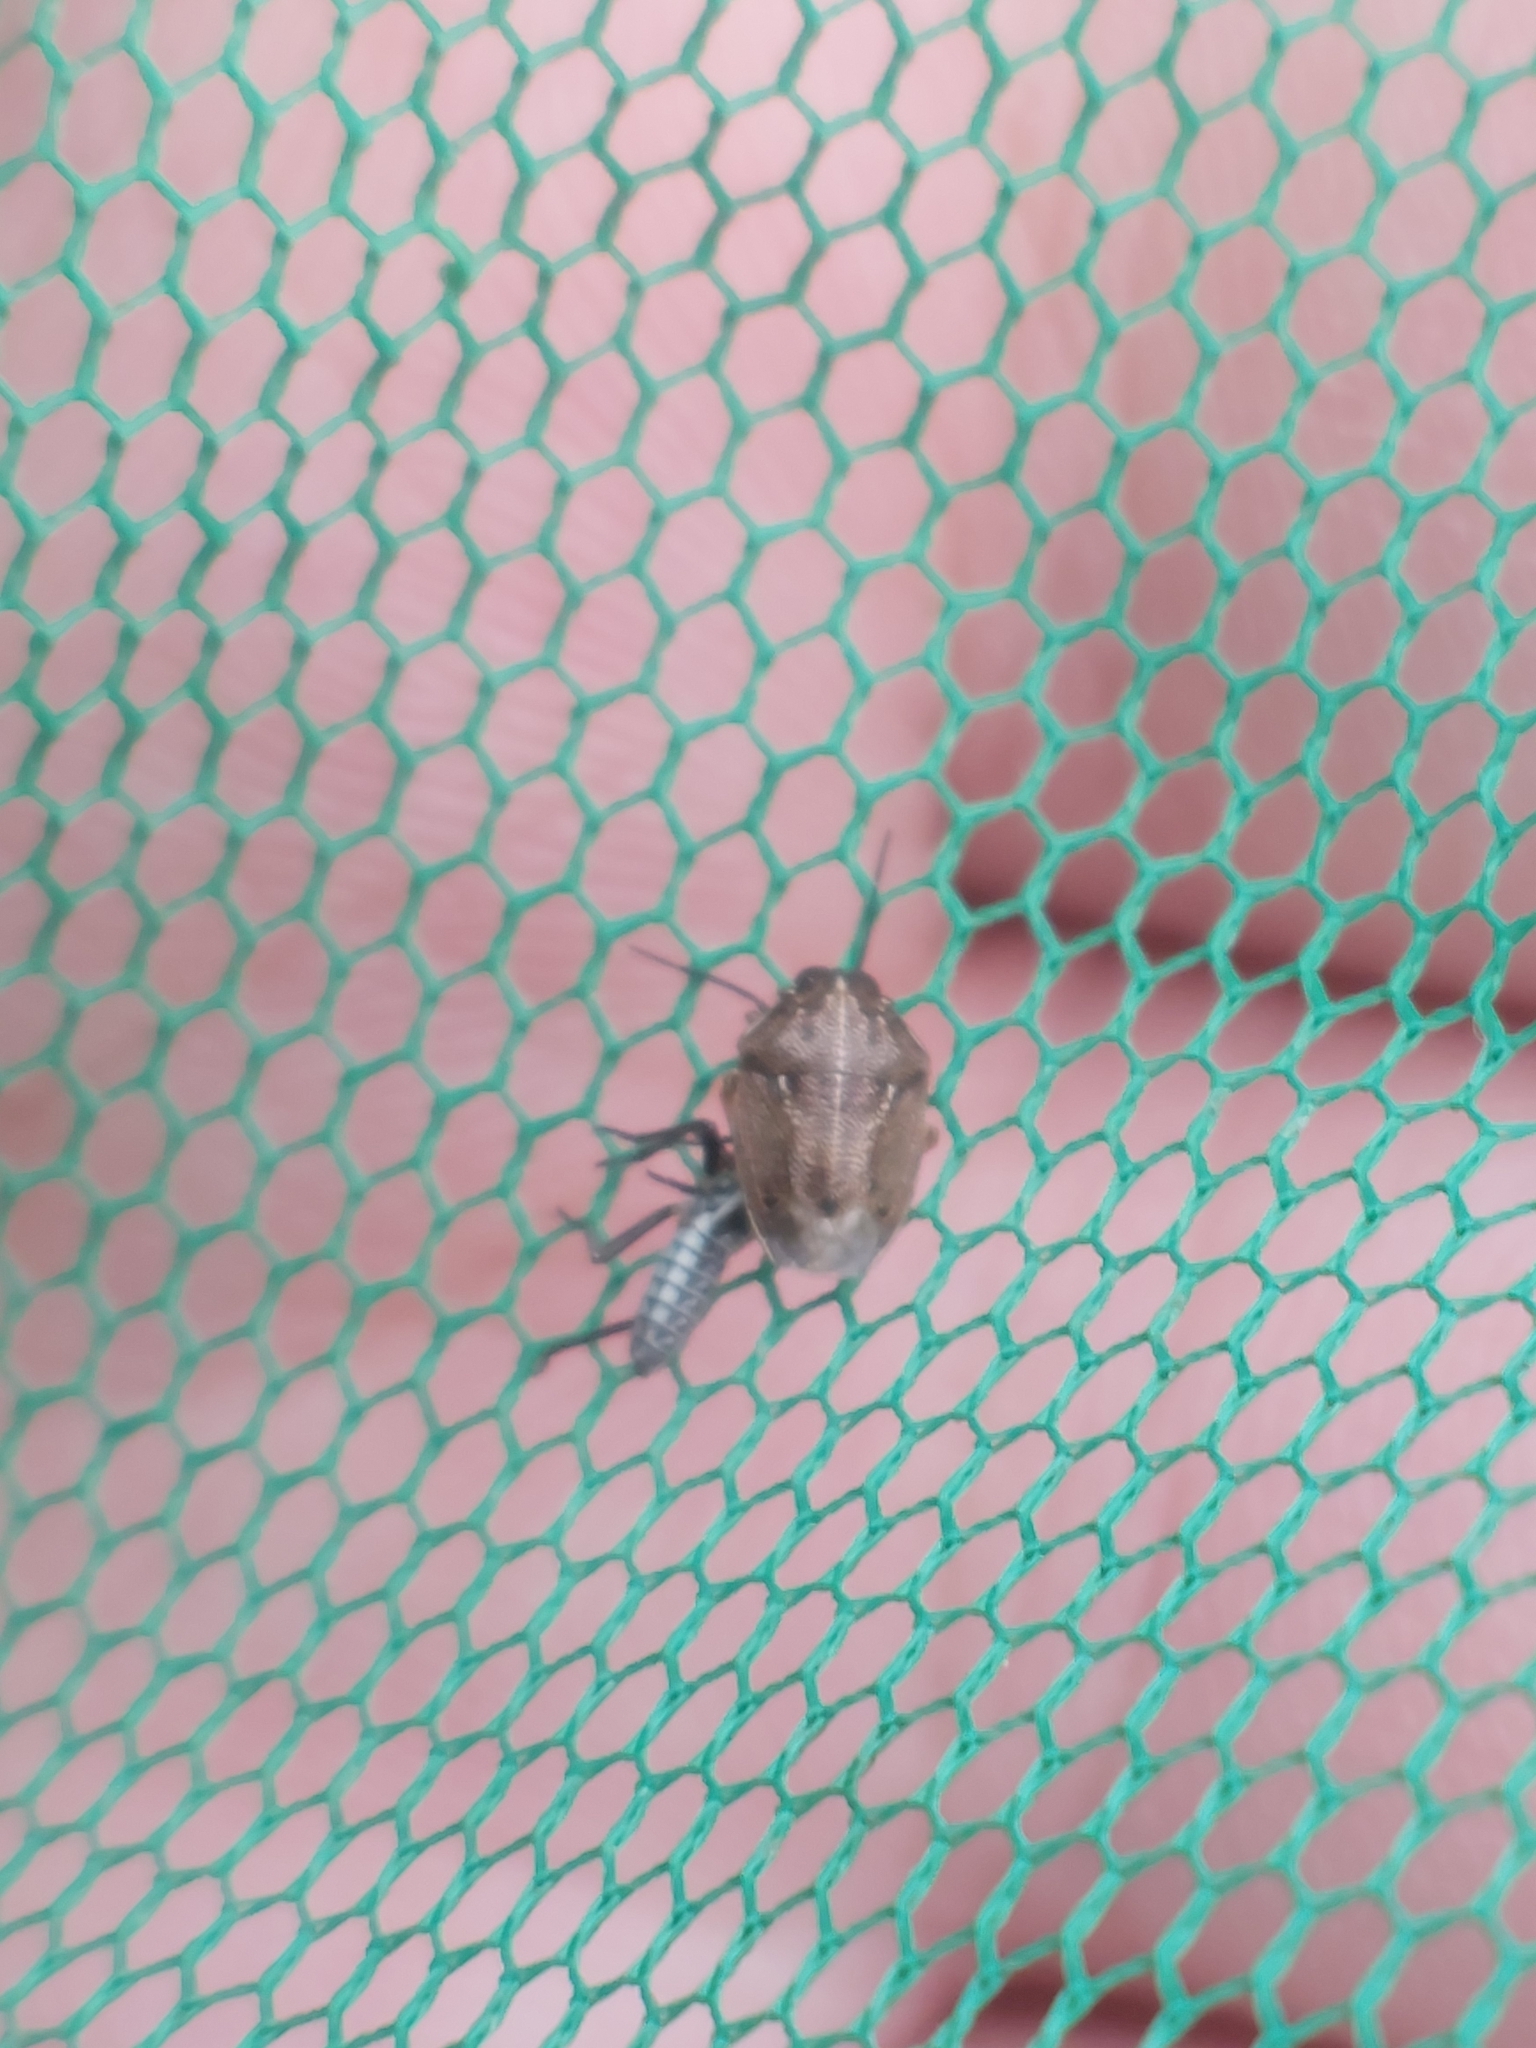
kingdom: Animalia
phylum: Arthropoda
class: Insecta
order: Hemiptera
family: Pentatomidae
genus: Neottiglossa
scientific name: Neottiglossa pusilla
